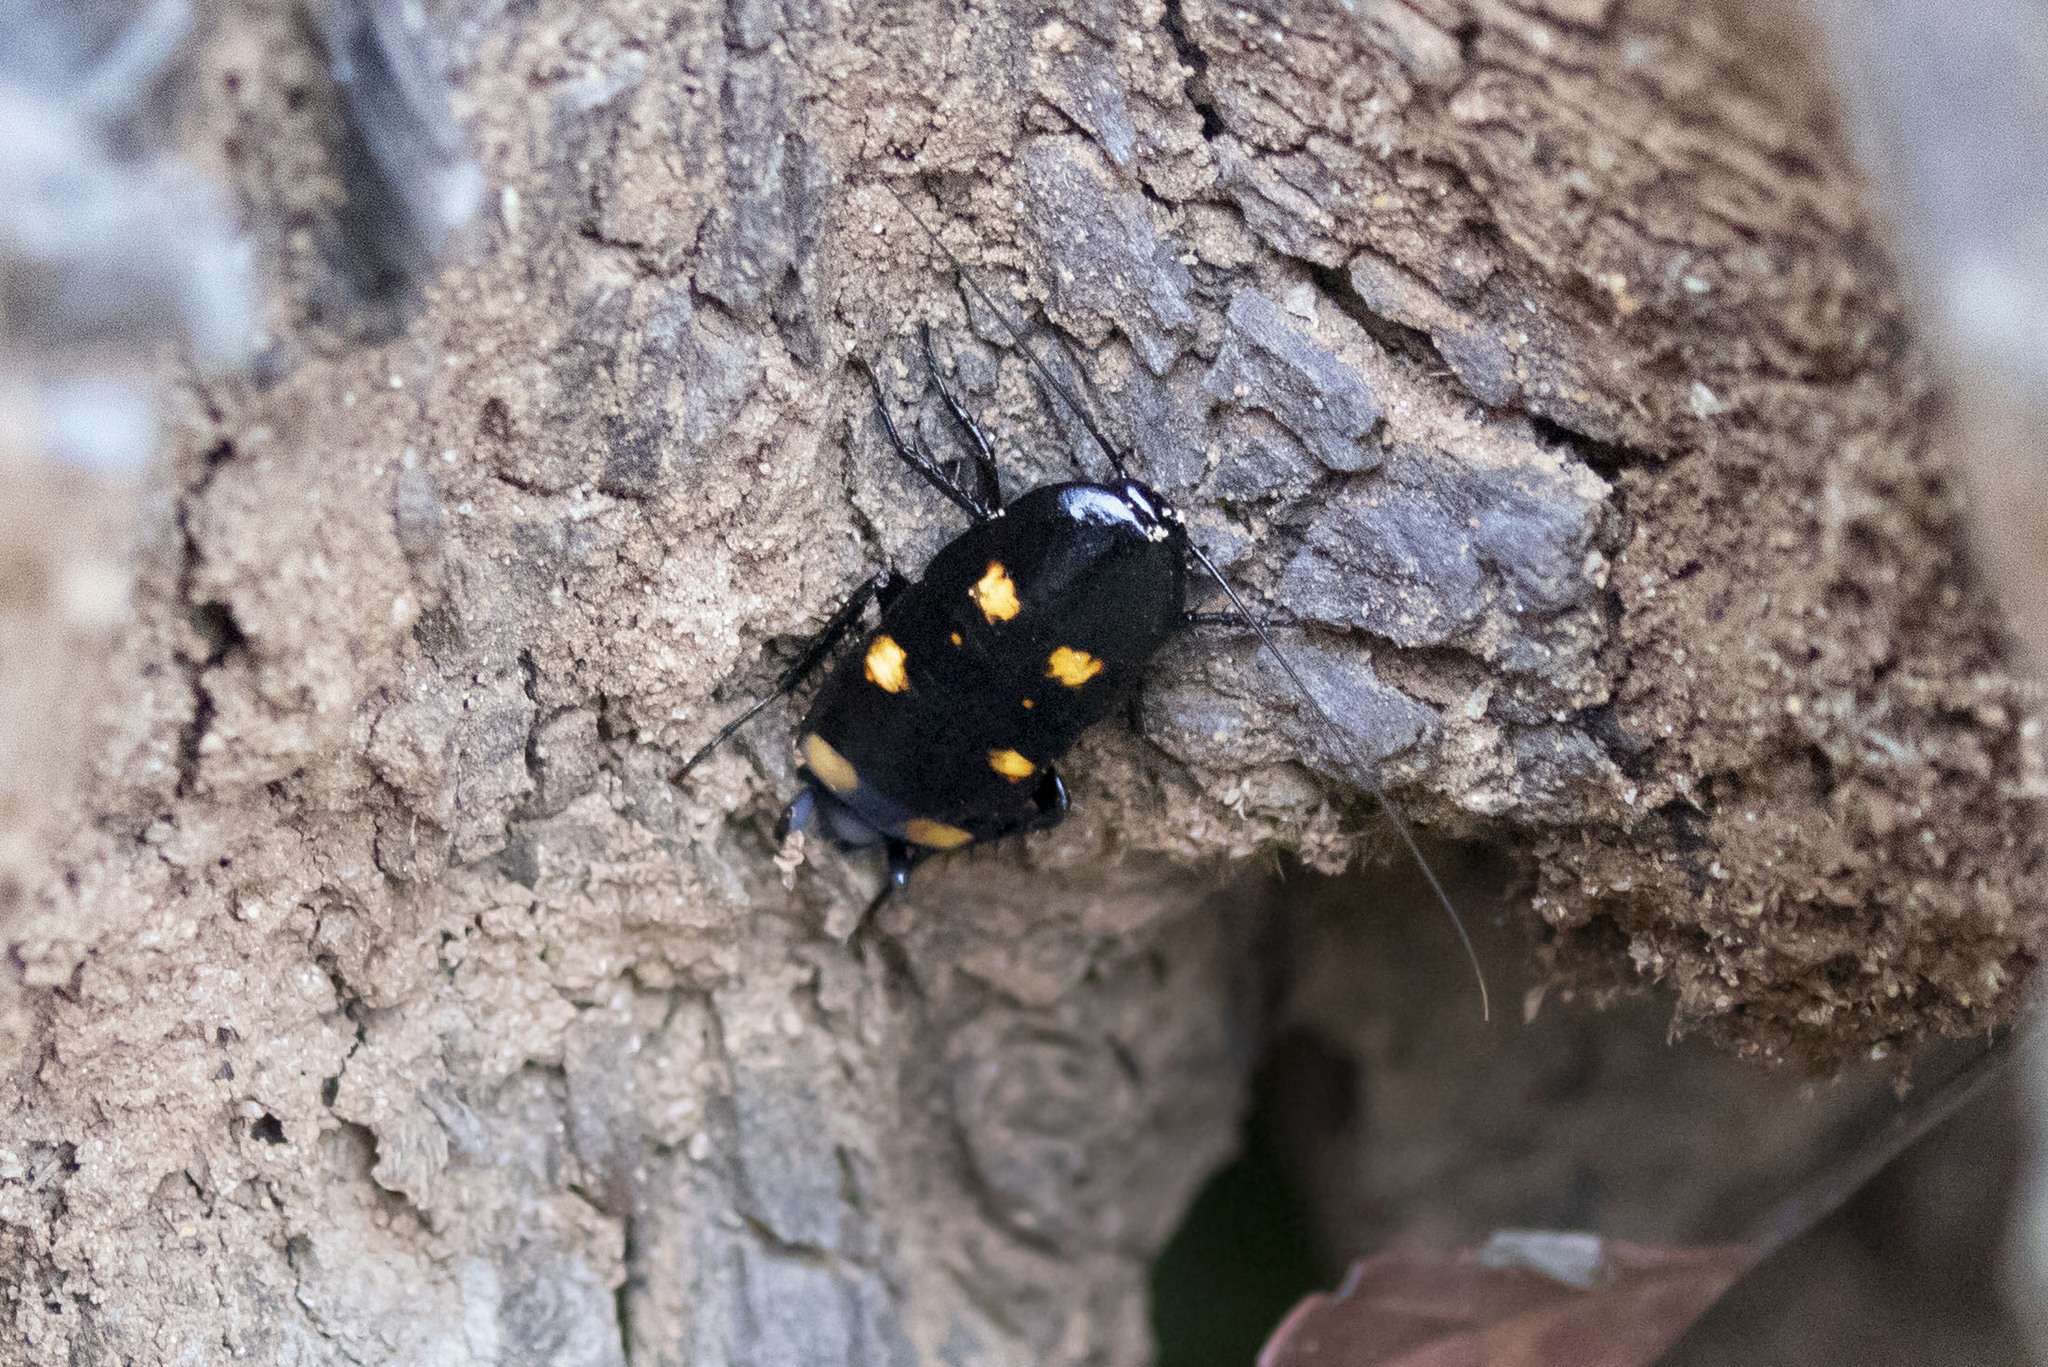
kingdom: Animalia
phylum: Arthropoda
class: Insecta
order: Blattodea
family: Blattidae
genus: Neostylopyga
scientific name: Neostylopyga sexpustulata
